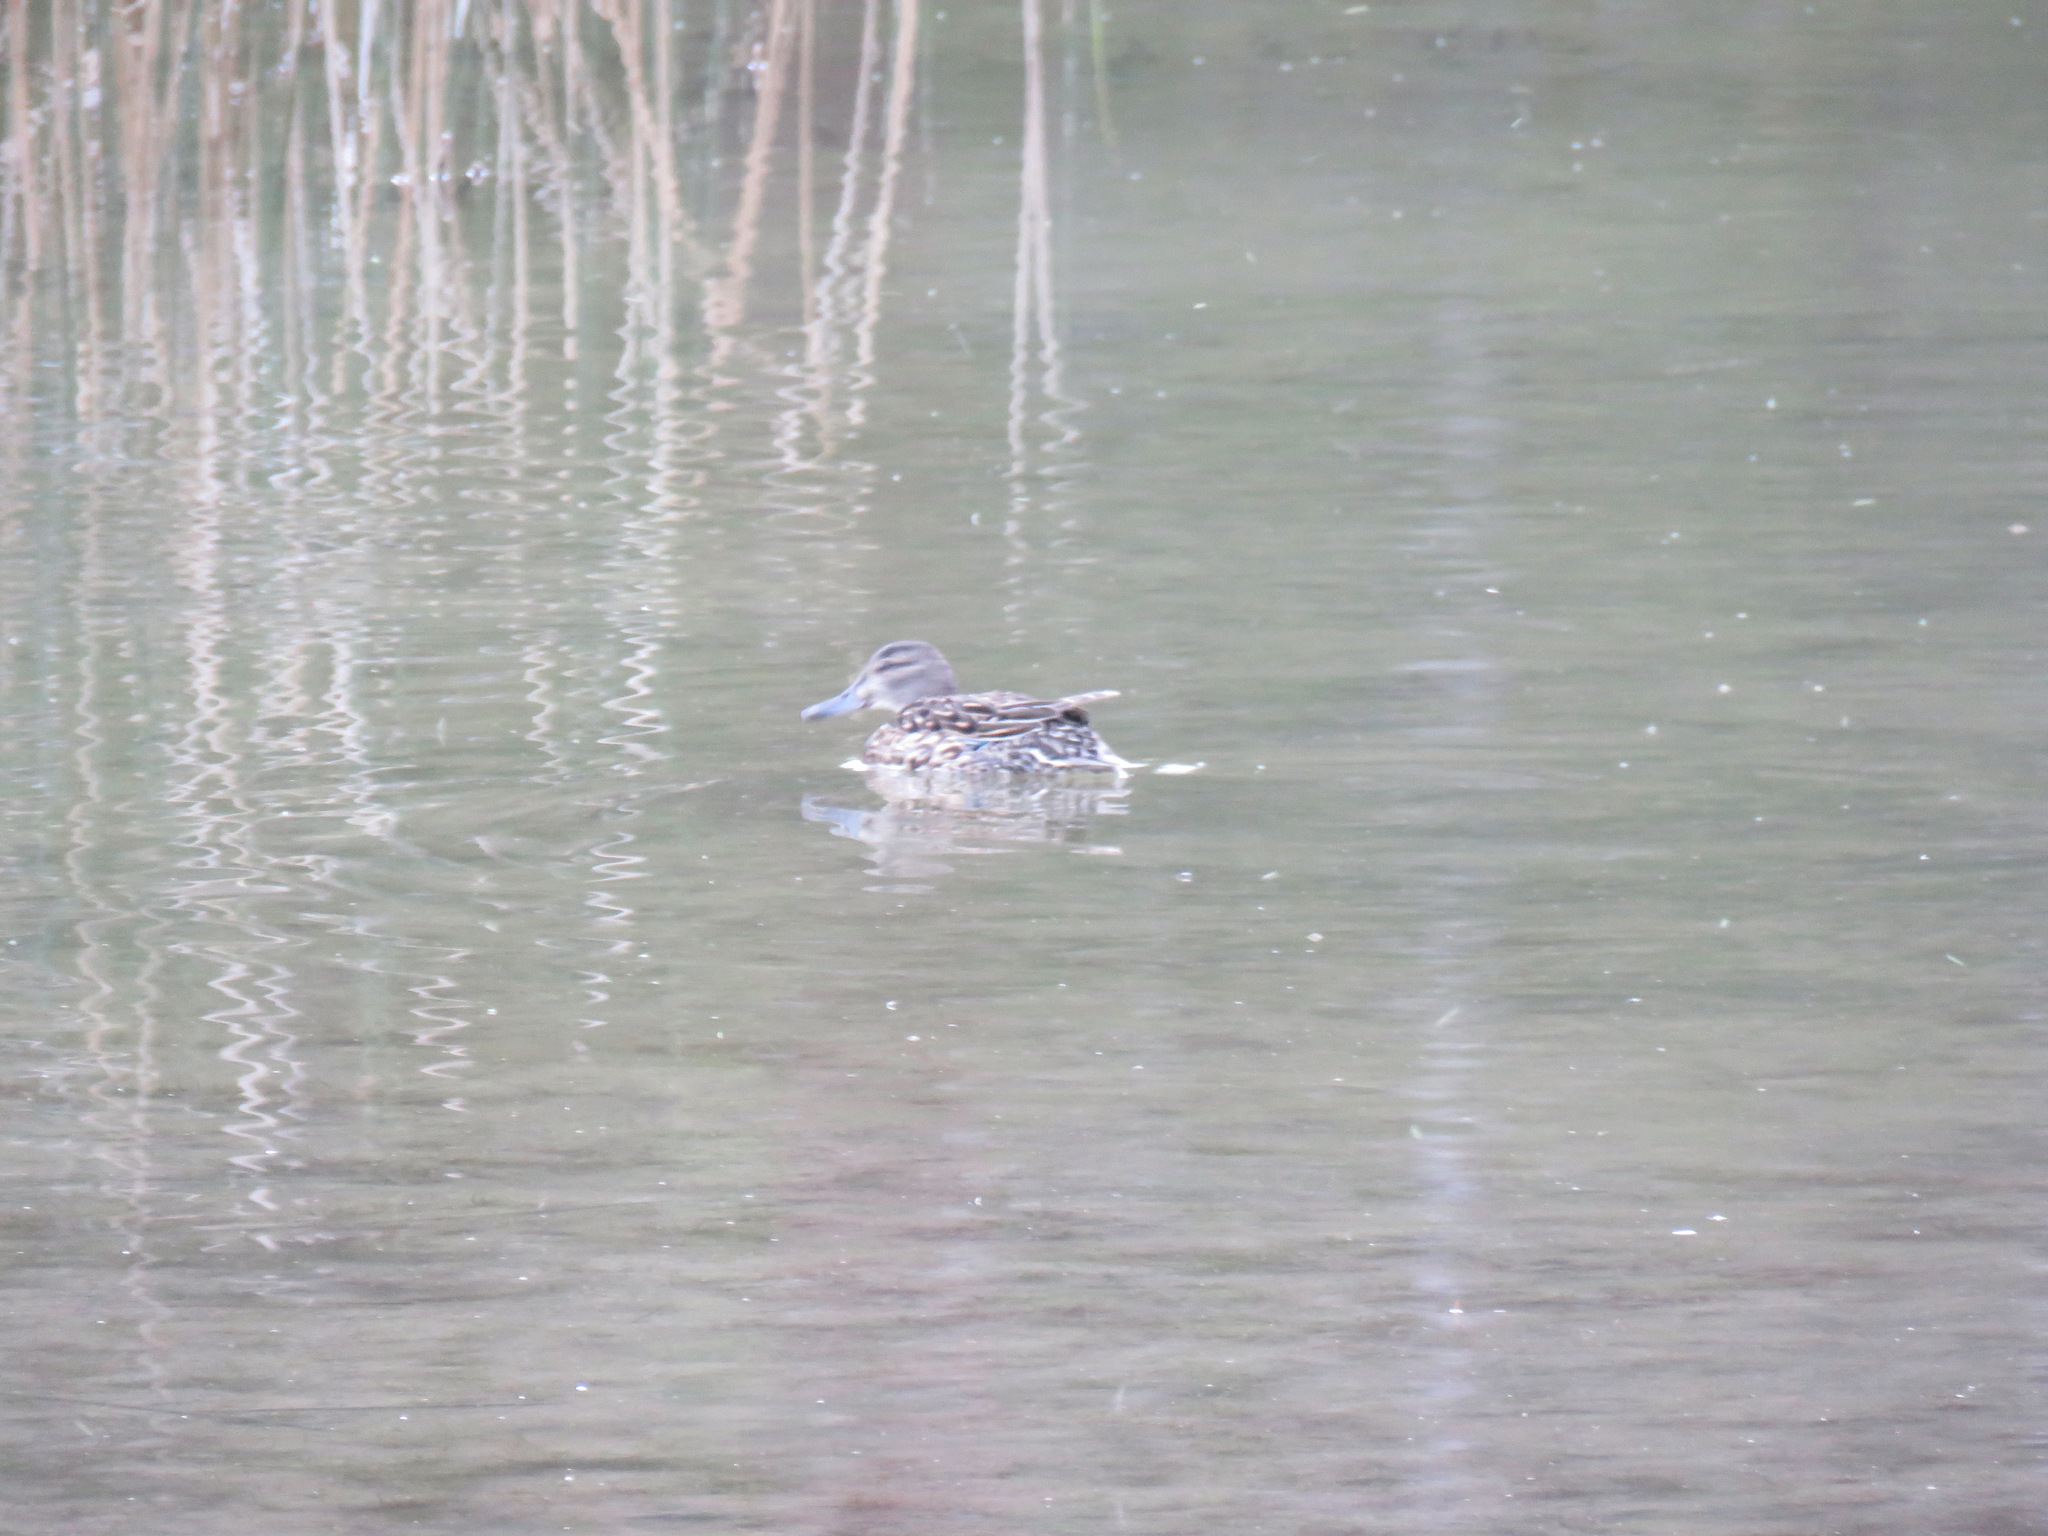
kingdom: Animalia
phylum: Chordata
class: Aves
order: Anseriformes
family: Anatidae
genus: Anas
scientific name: Anas crecca
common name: Eurasian teal
